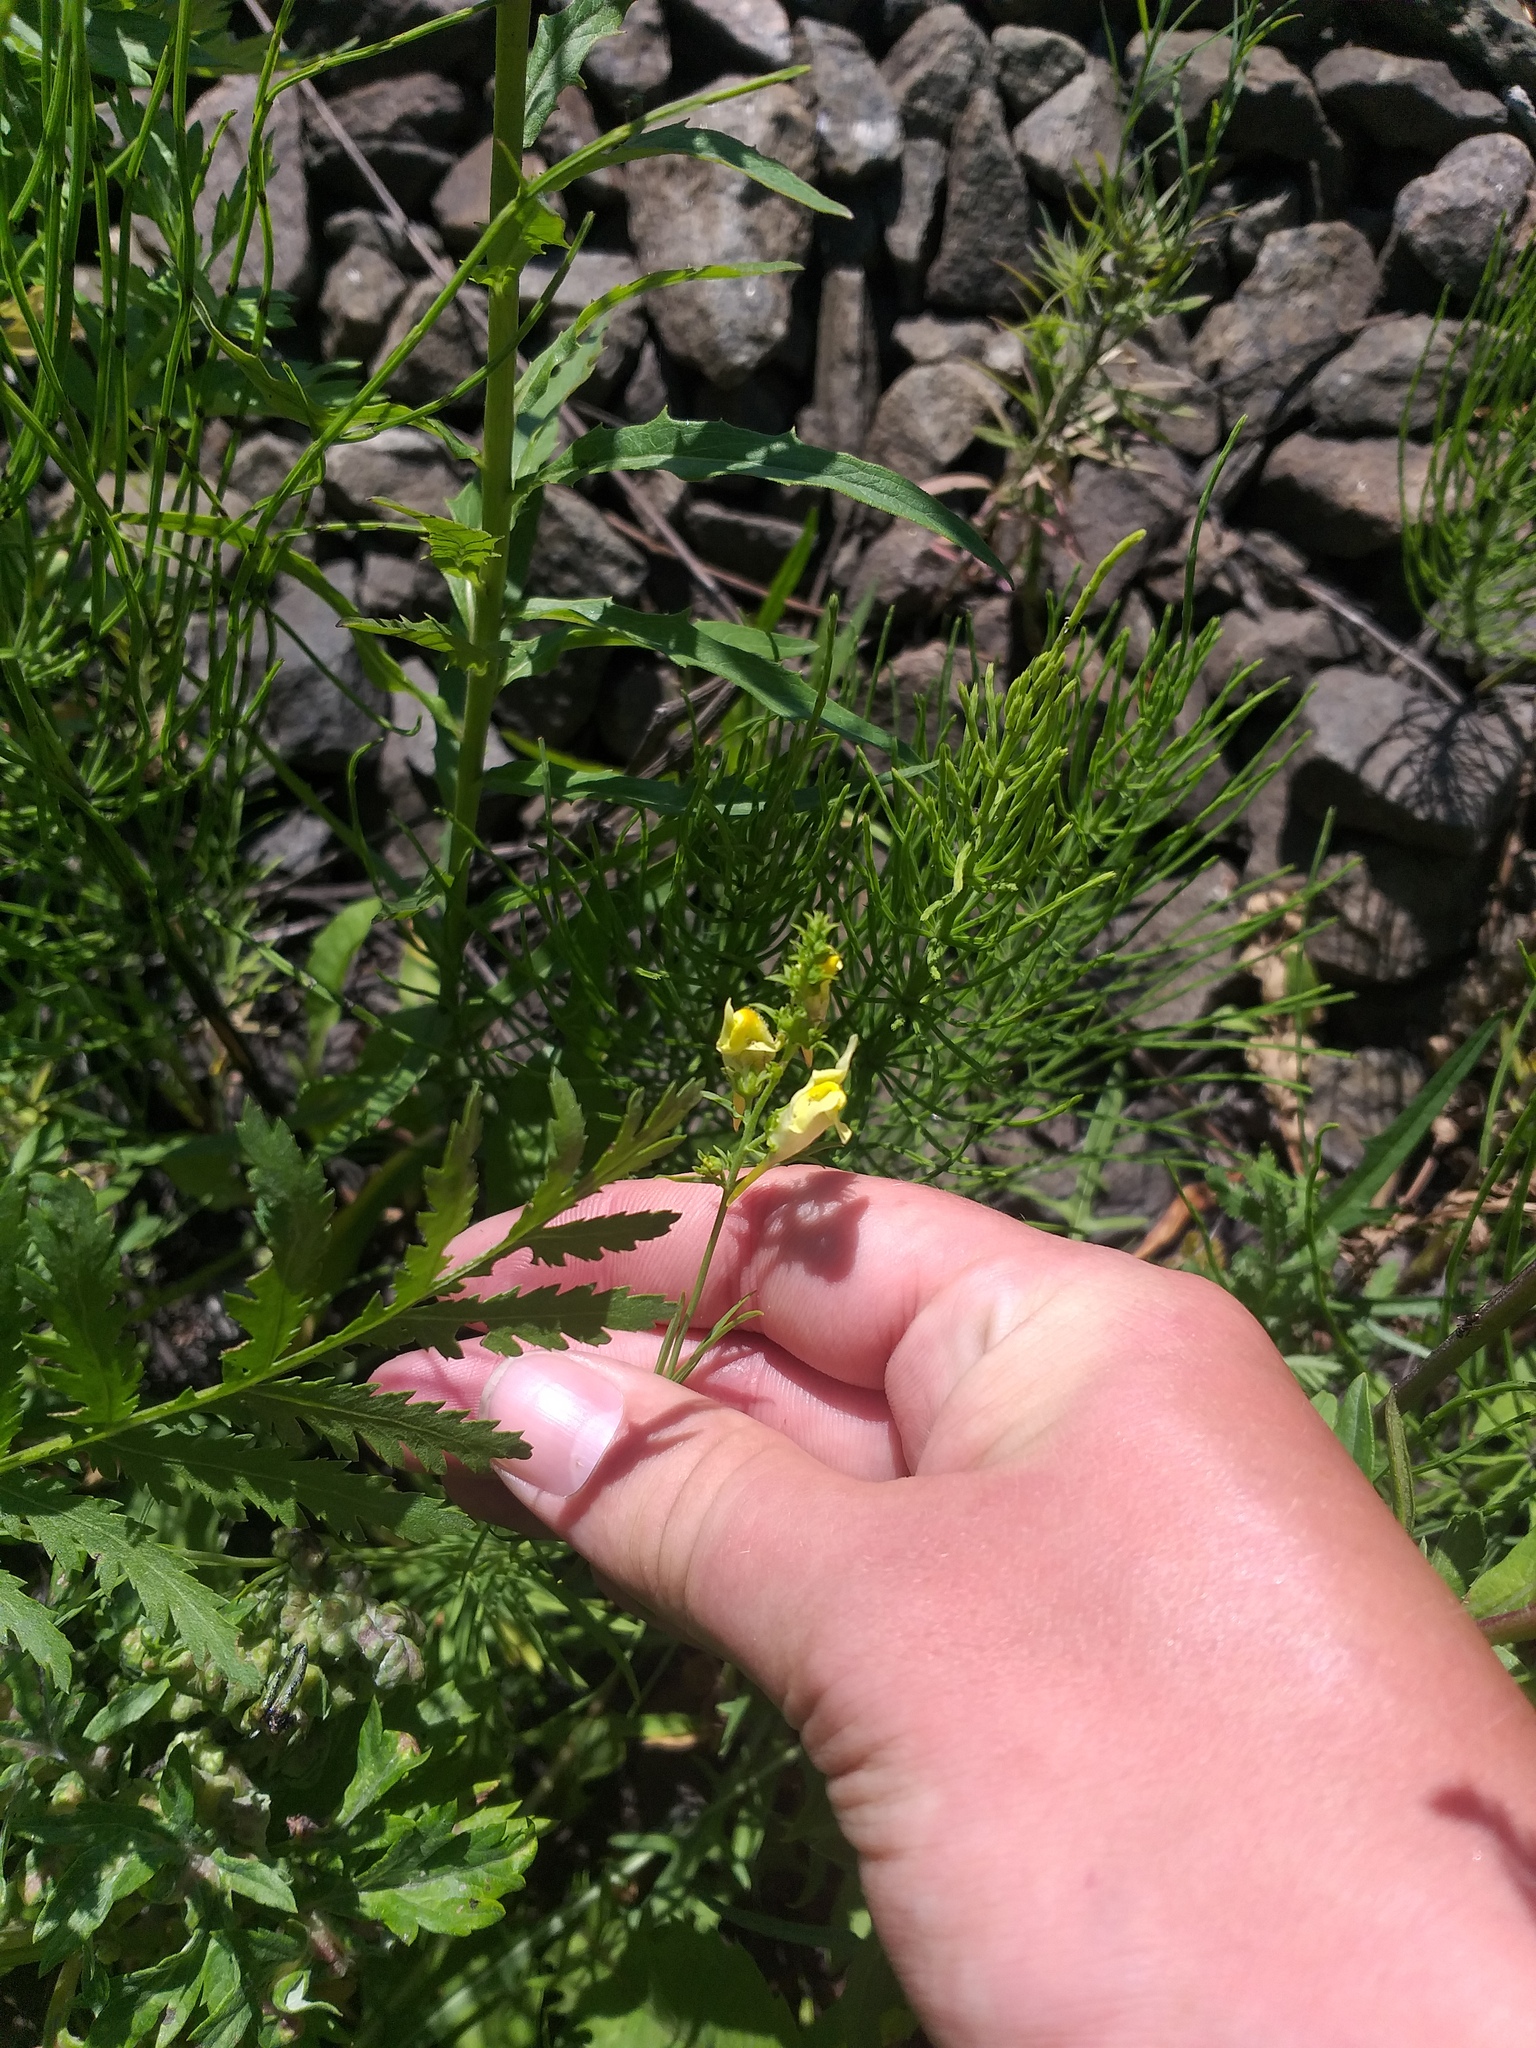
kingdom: Plantae
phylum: Tracheophyta
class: Magnoliopsida
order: Lamiales
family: Plantaginaceae
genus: Linaria
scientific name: Linaria vulgaris
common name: Butter and eggs
